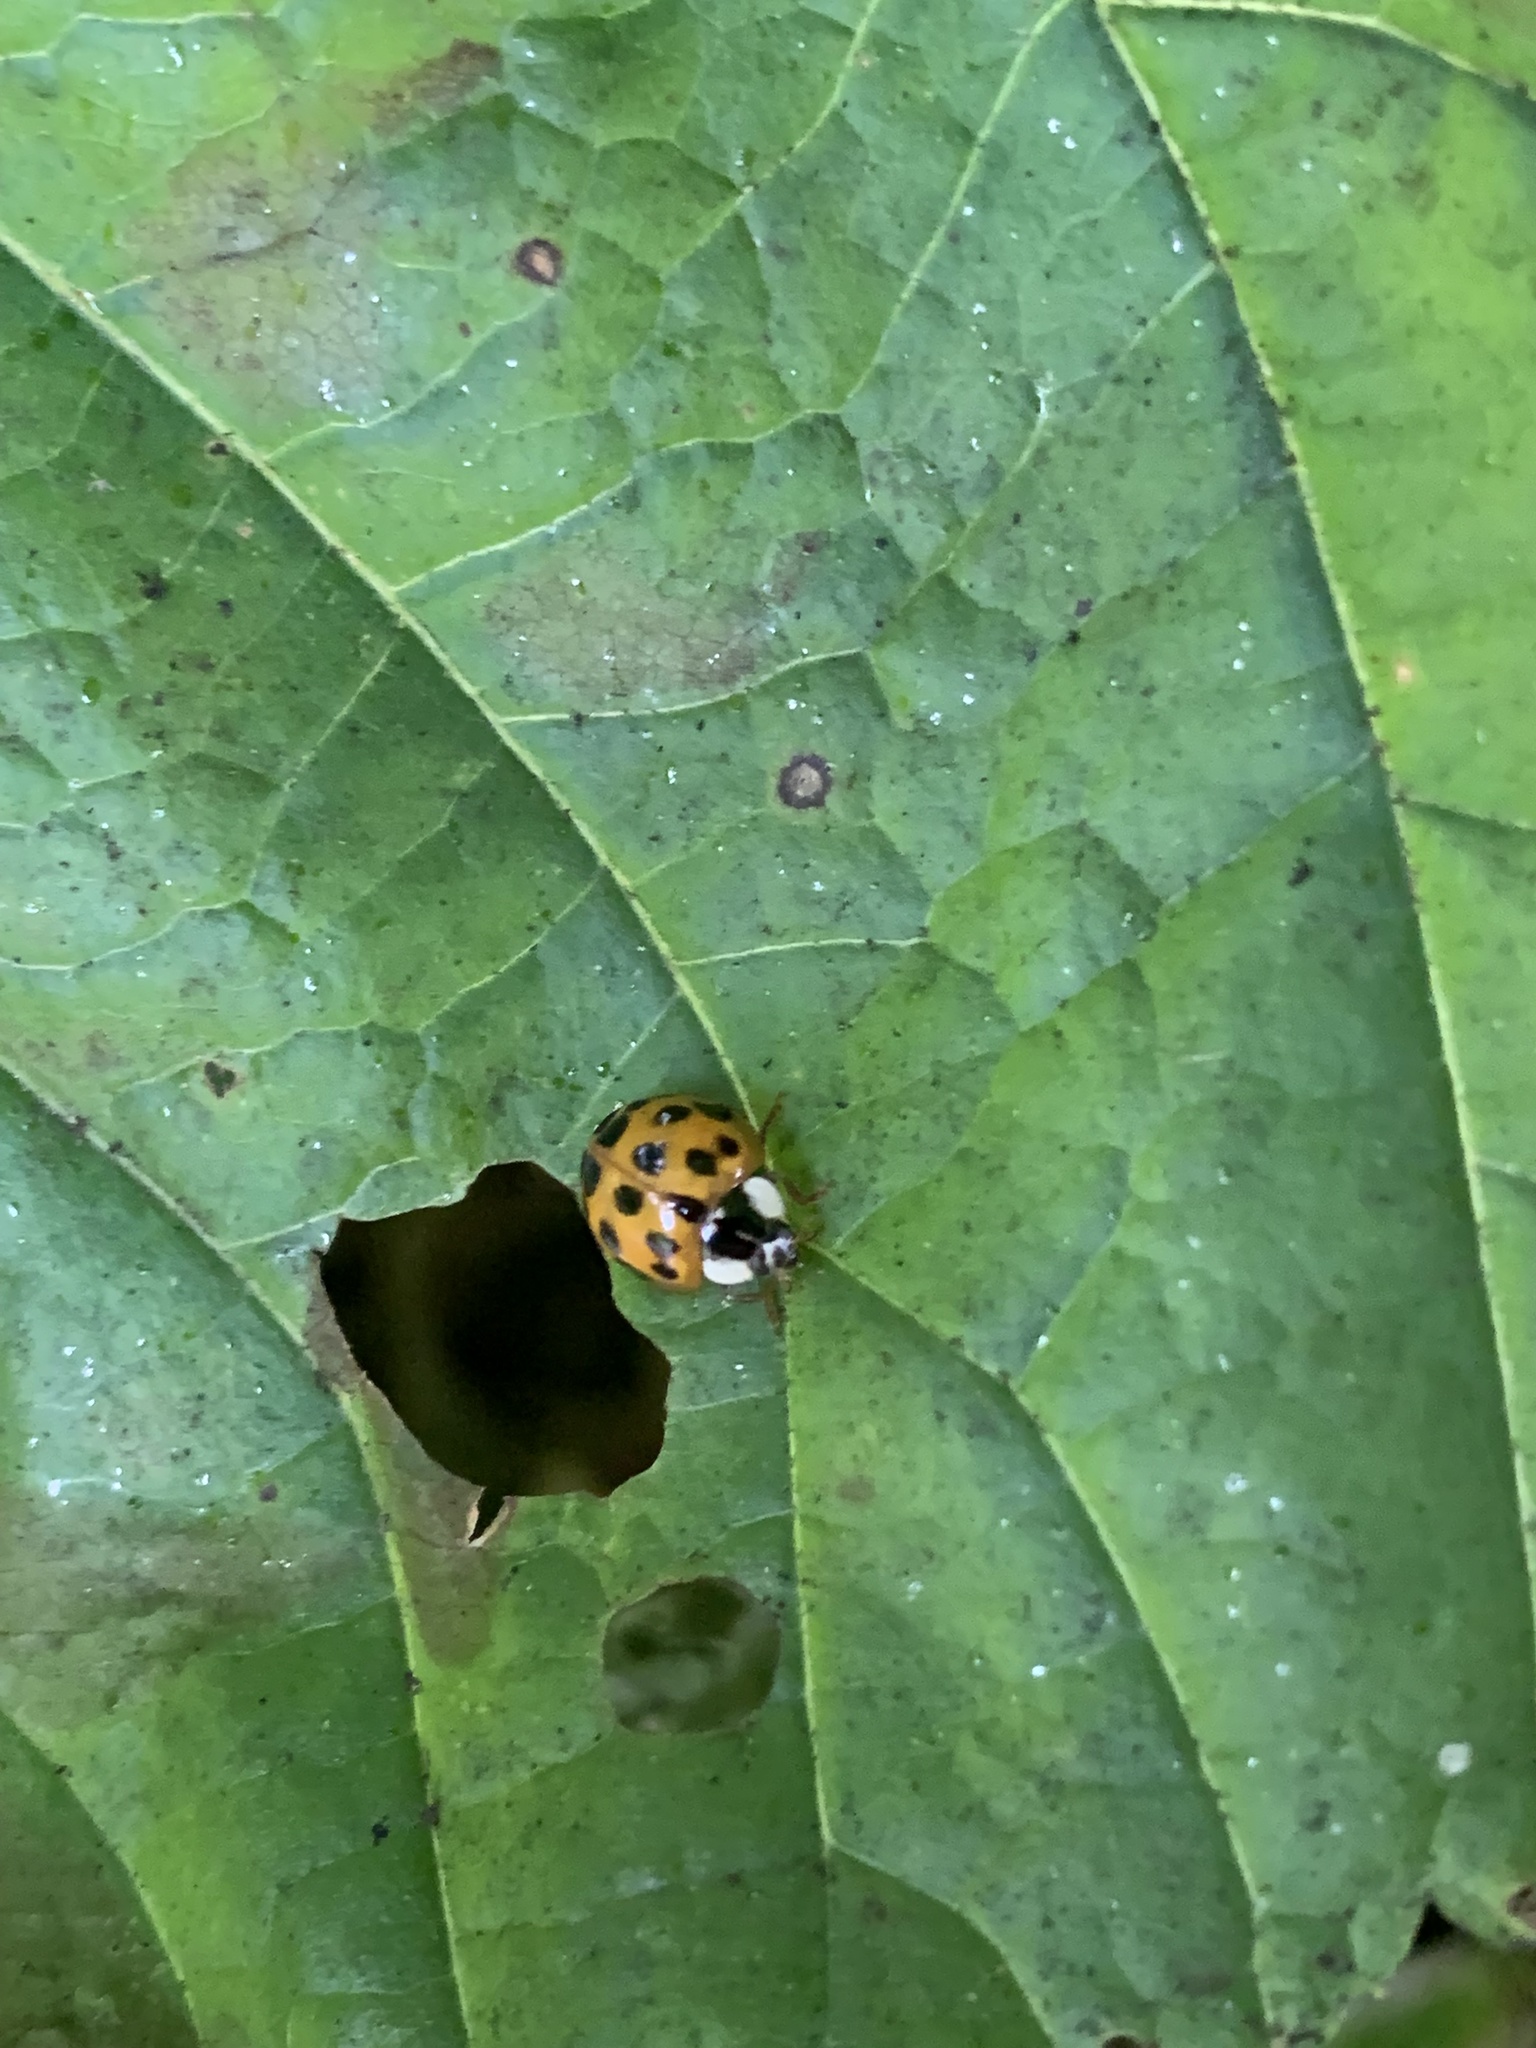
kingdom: Animalia
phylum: Arthropoda
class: Insecta
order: Coleoptera
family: Coccinellidae
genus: Harmonia
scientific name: Harmonia axyridis
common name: Harlequin ladybird
